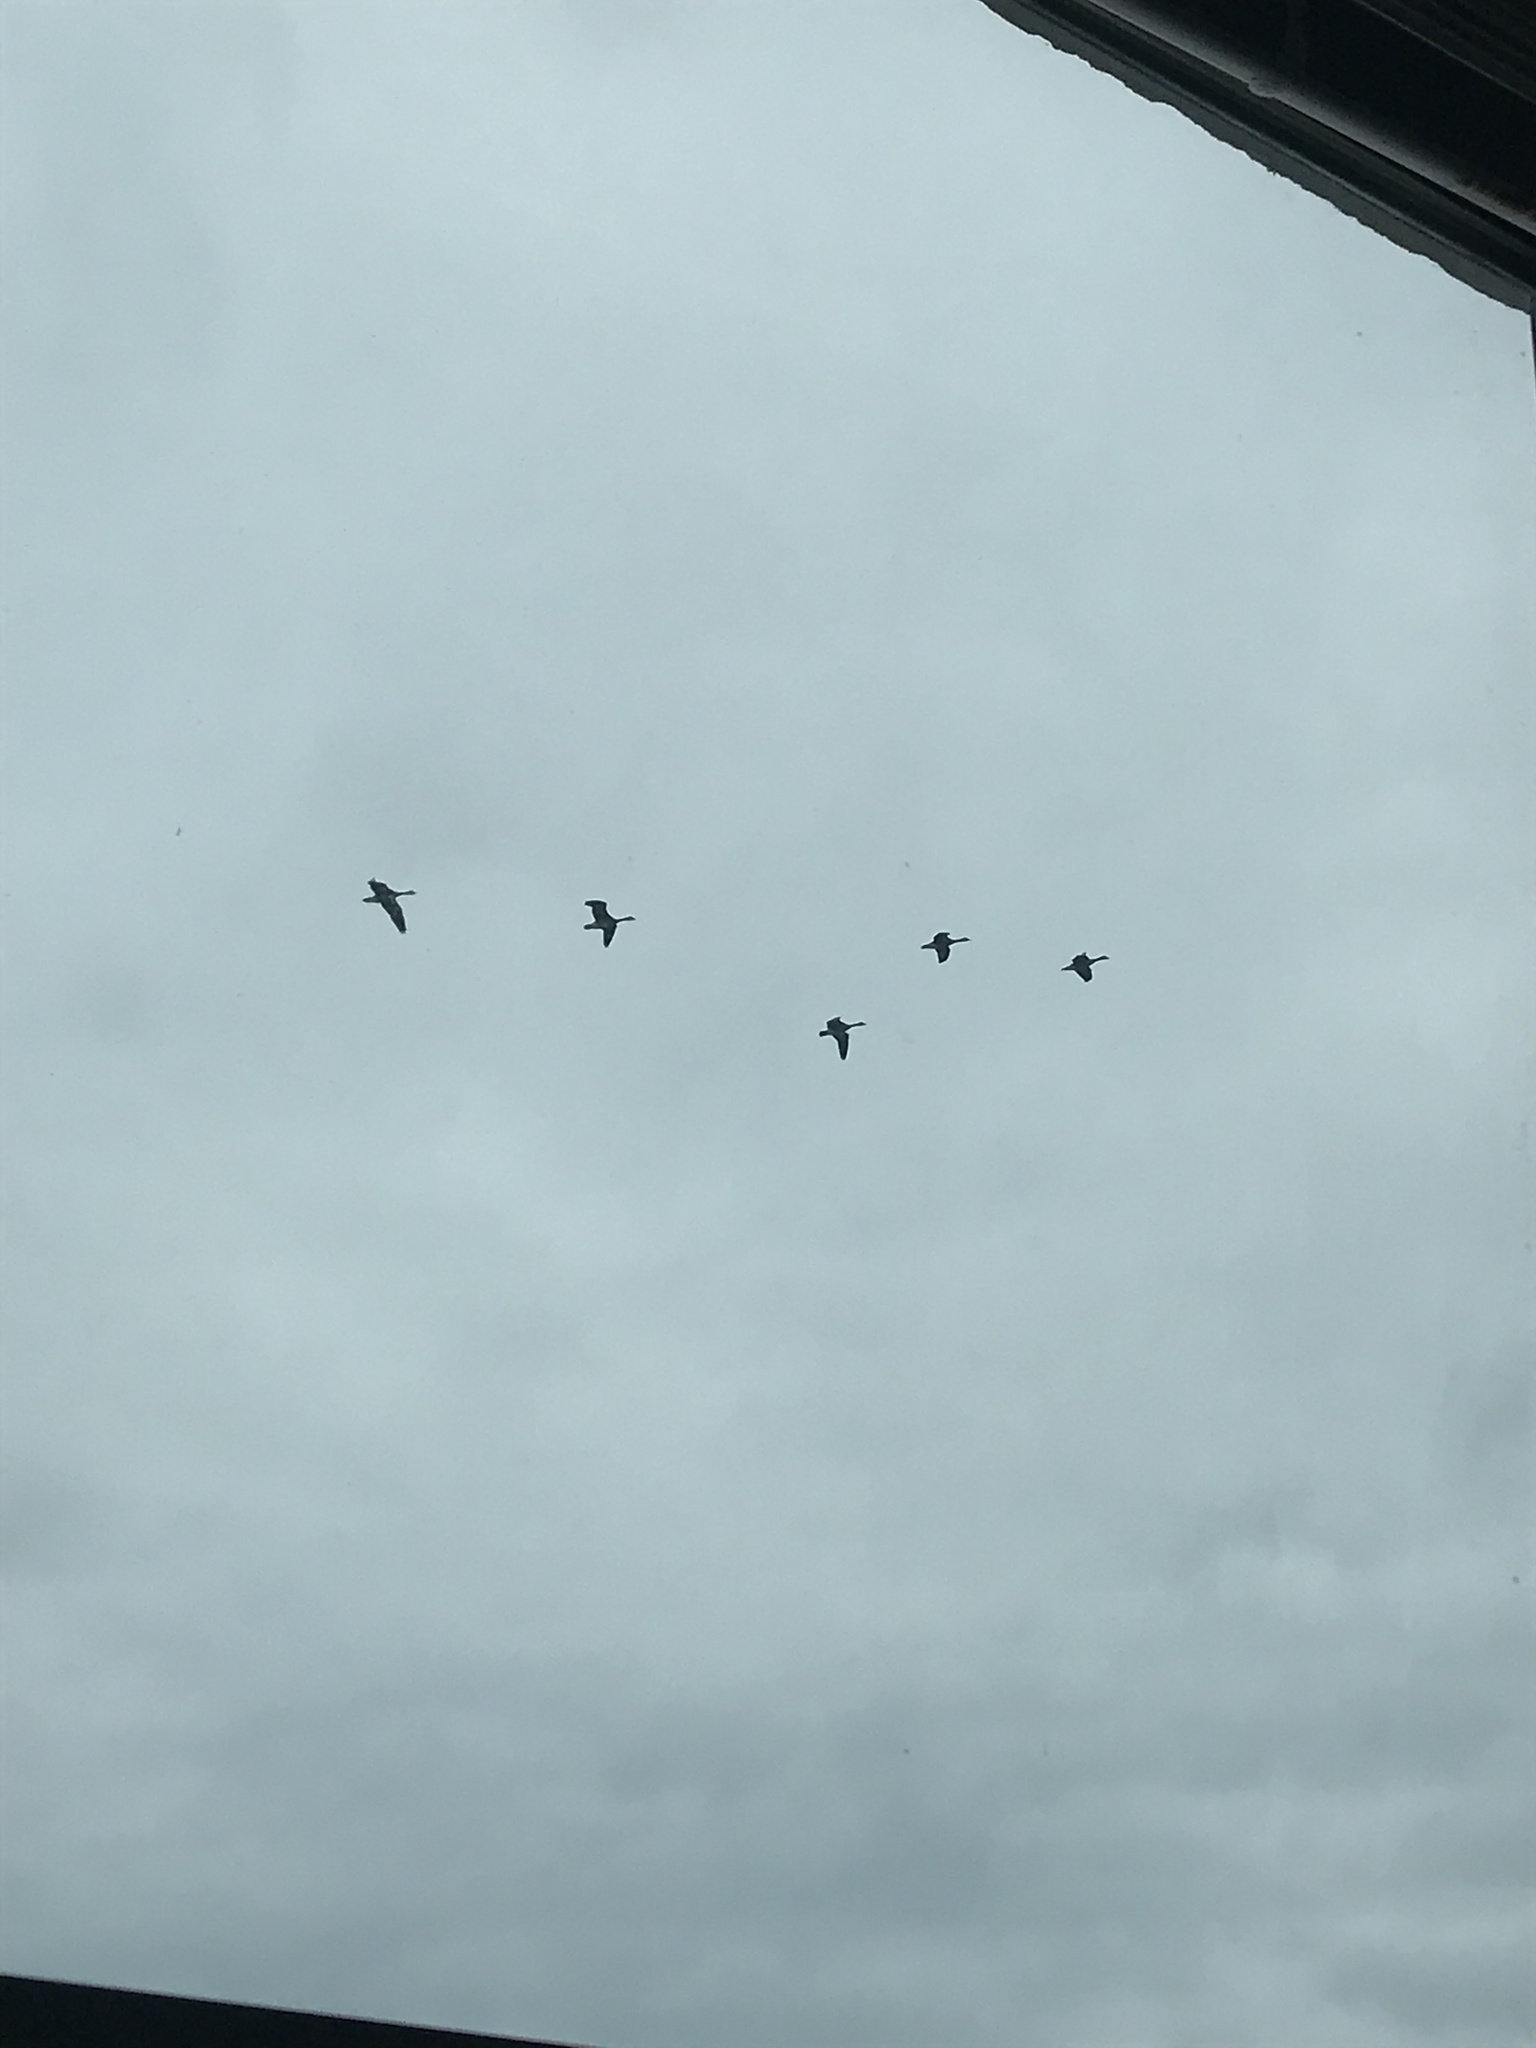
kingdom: Animalia
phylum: Chordata
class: Aves
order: Anseriformes
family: Anatidae
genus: Branta
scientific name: Branta canadensis
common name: Canada goose
